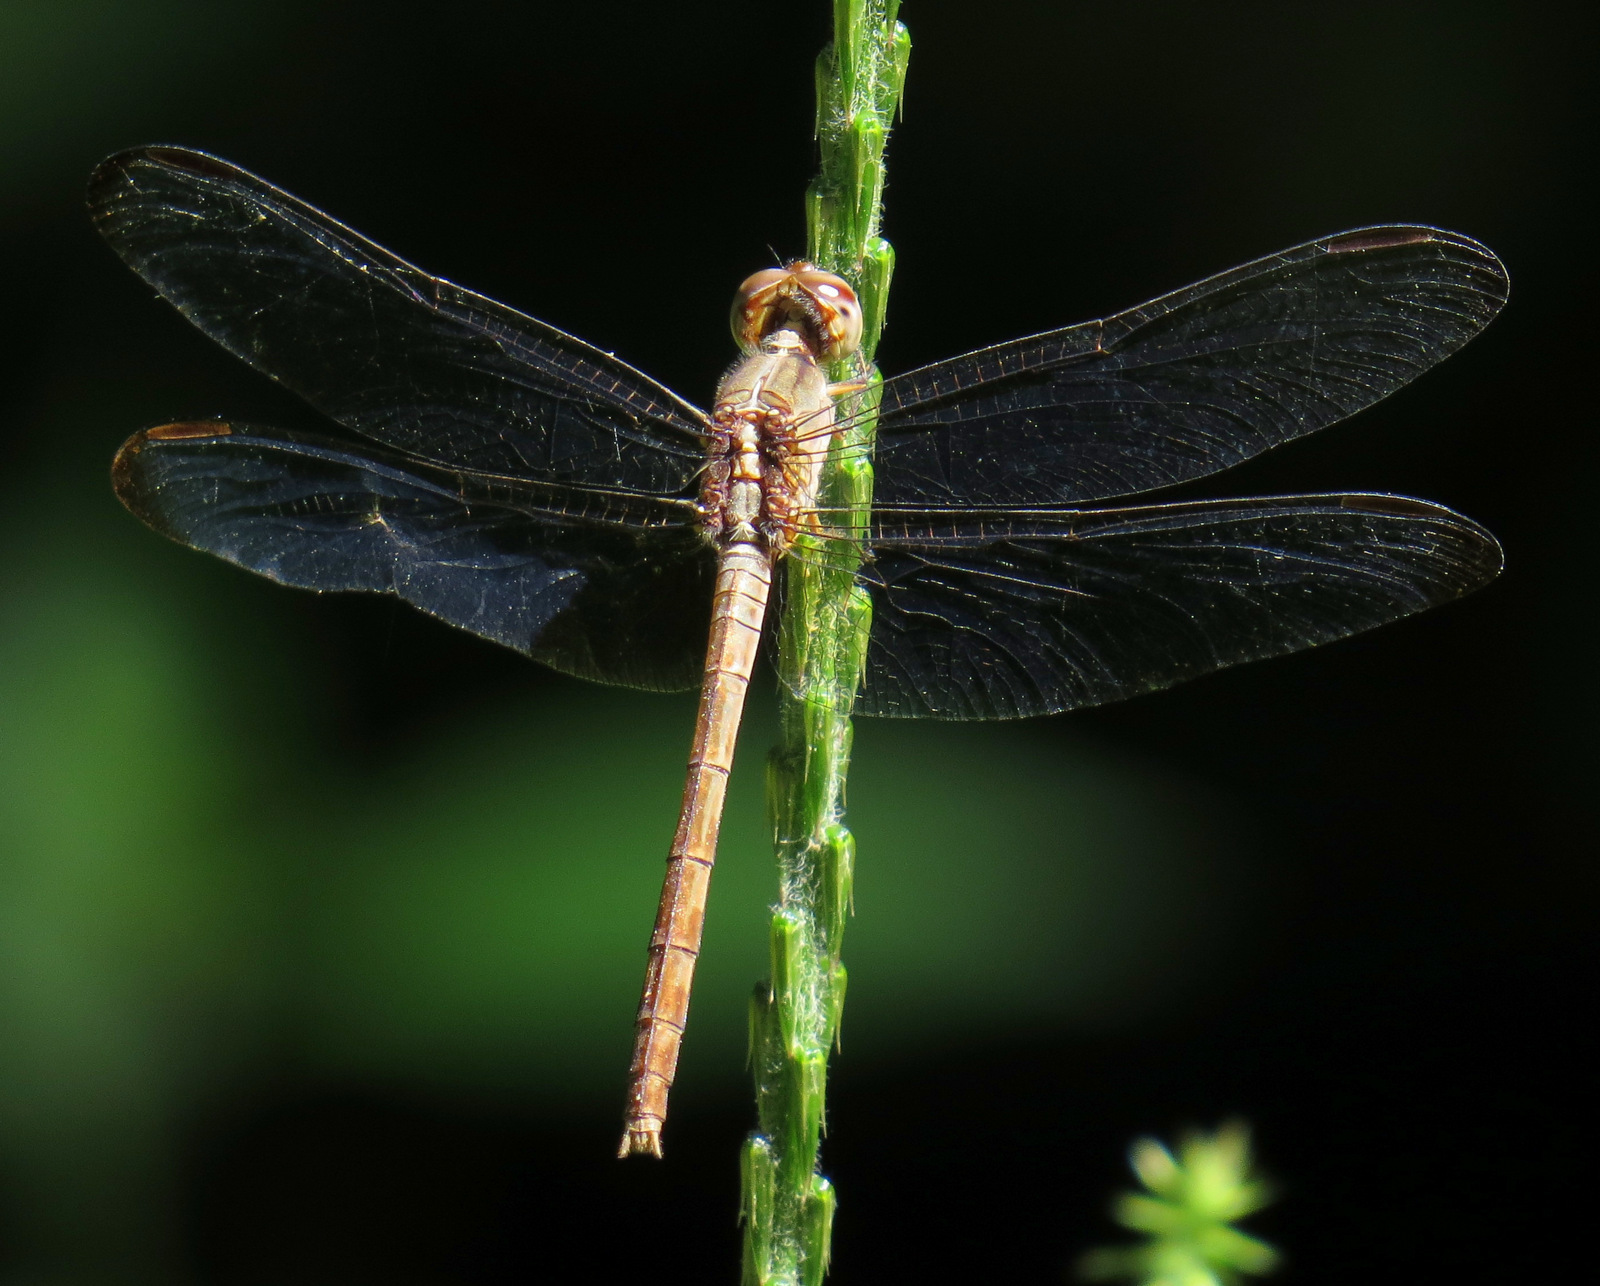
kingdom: Animalia
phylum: Arthropoda
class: Insecta
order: Odonata
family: Libellulidae
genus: Erythrodiplax
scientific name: Erythrodiplax funerea
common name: Black-winged dragonlet
